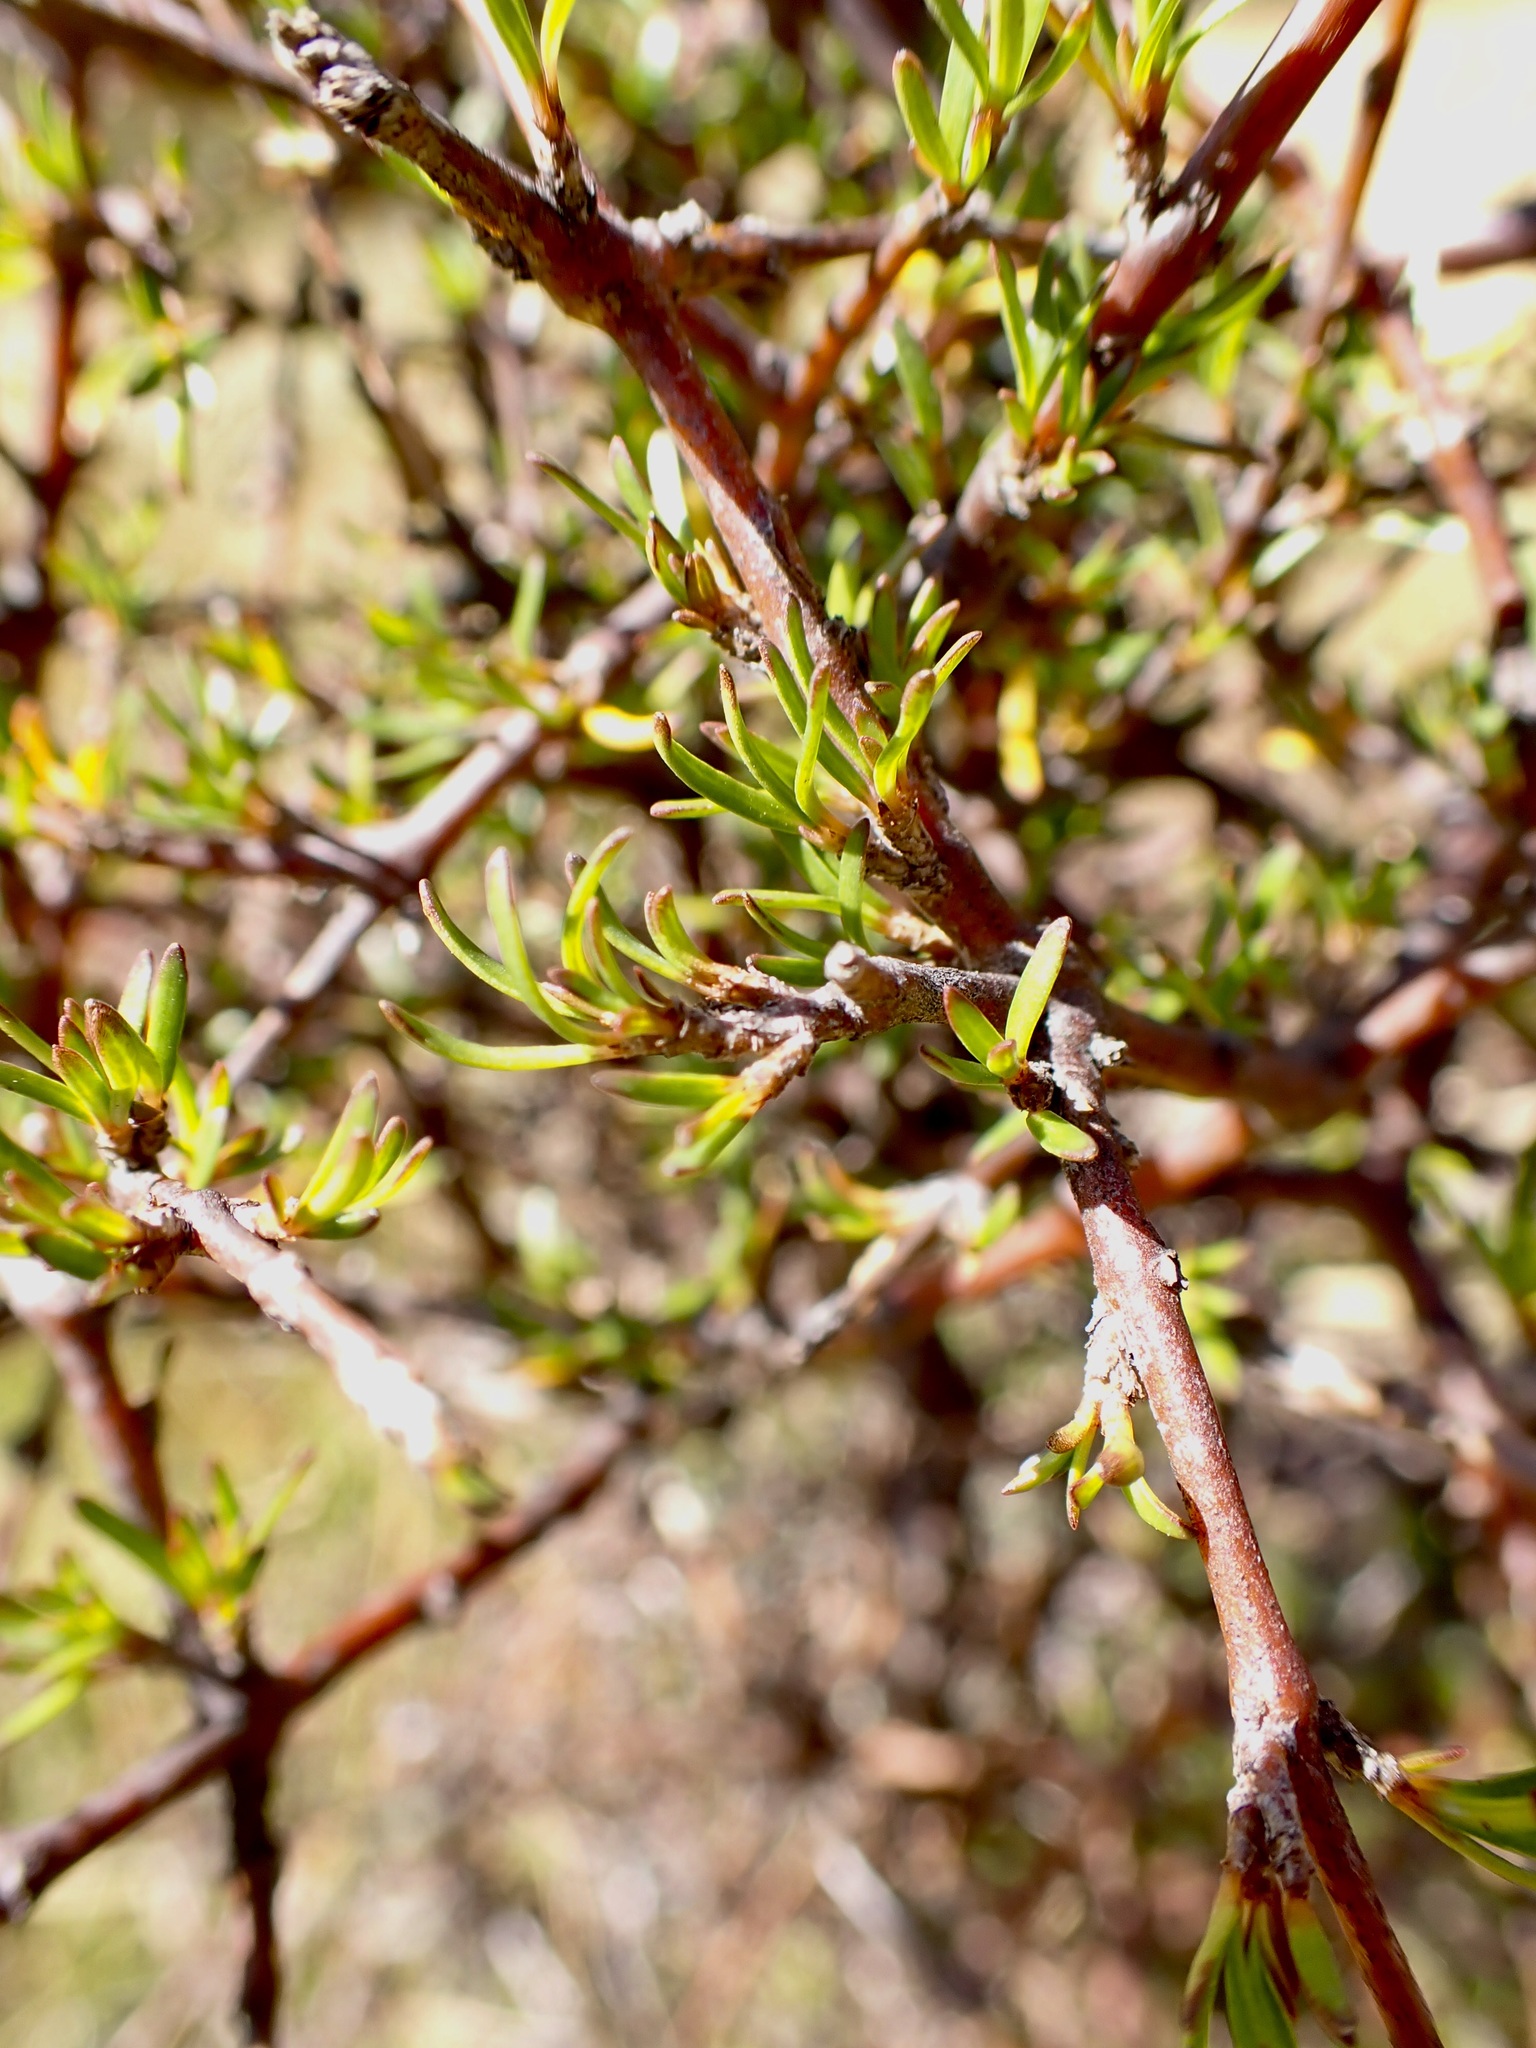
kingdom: Plantae
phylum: Tracheophyta
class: Magnoliopsida
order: Gentianales
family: Rubiaceae
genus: Coprosma
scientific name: Coprosma rugosa
